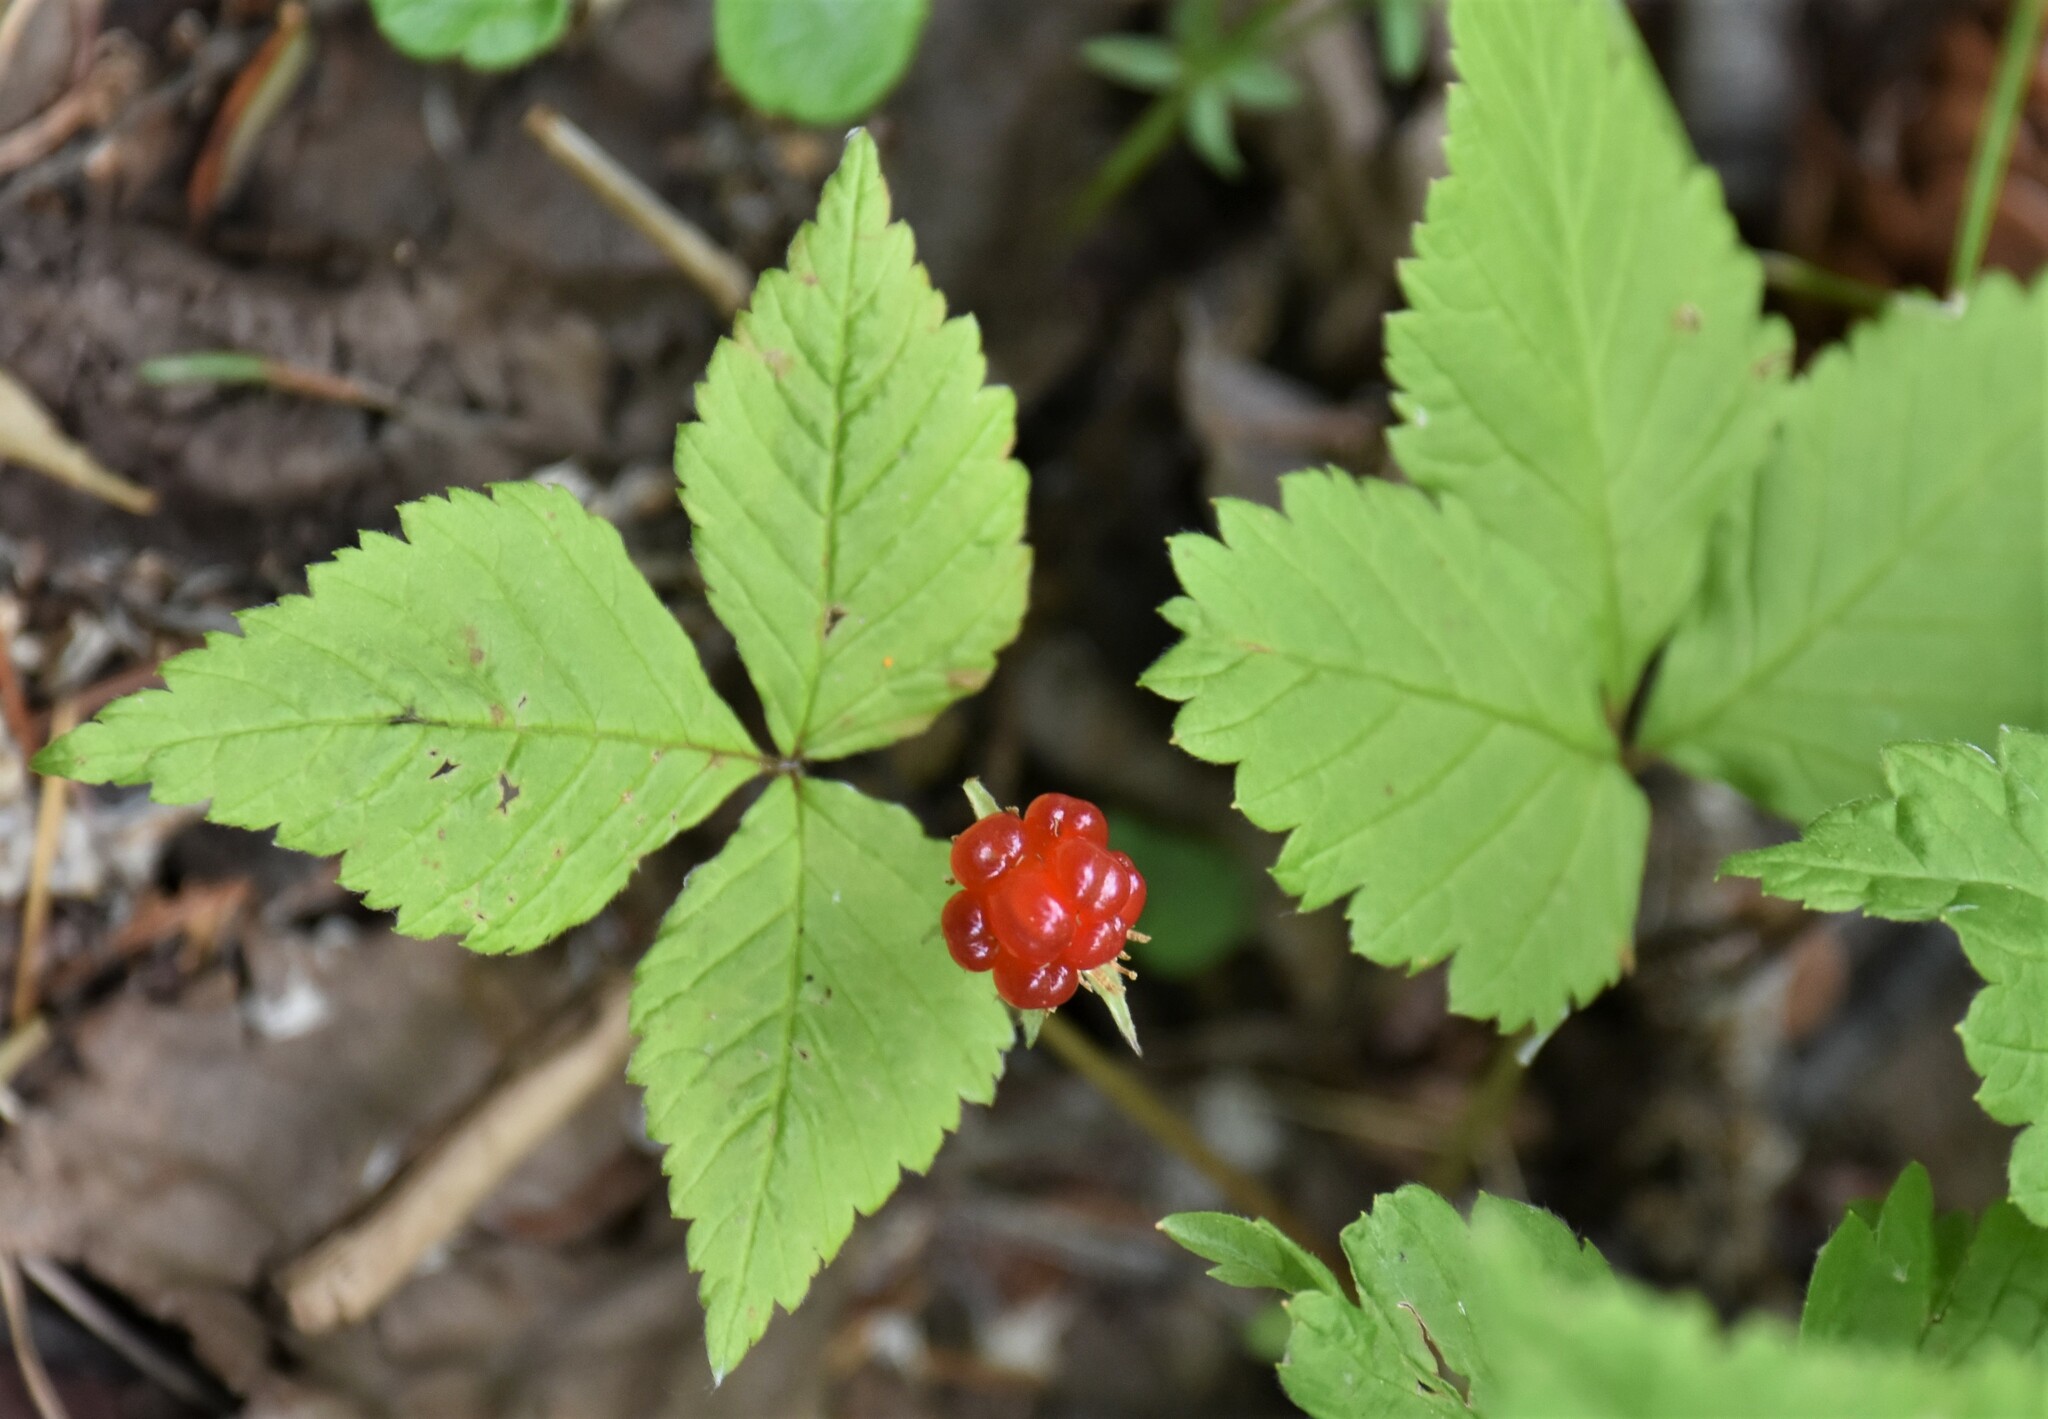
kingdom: Plantae
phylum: Tracheophyta
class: Magnoliopsida
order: Rosales
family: Rosaceae
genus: Rubus
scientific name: Rubus pubescens
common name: Dwarf raspberry
